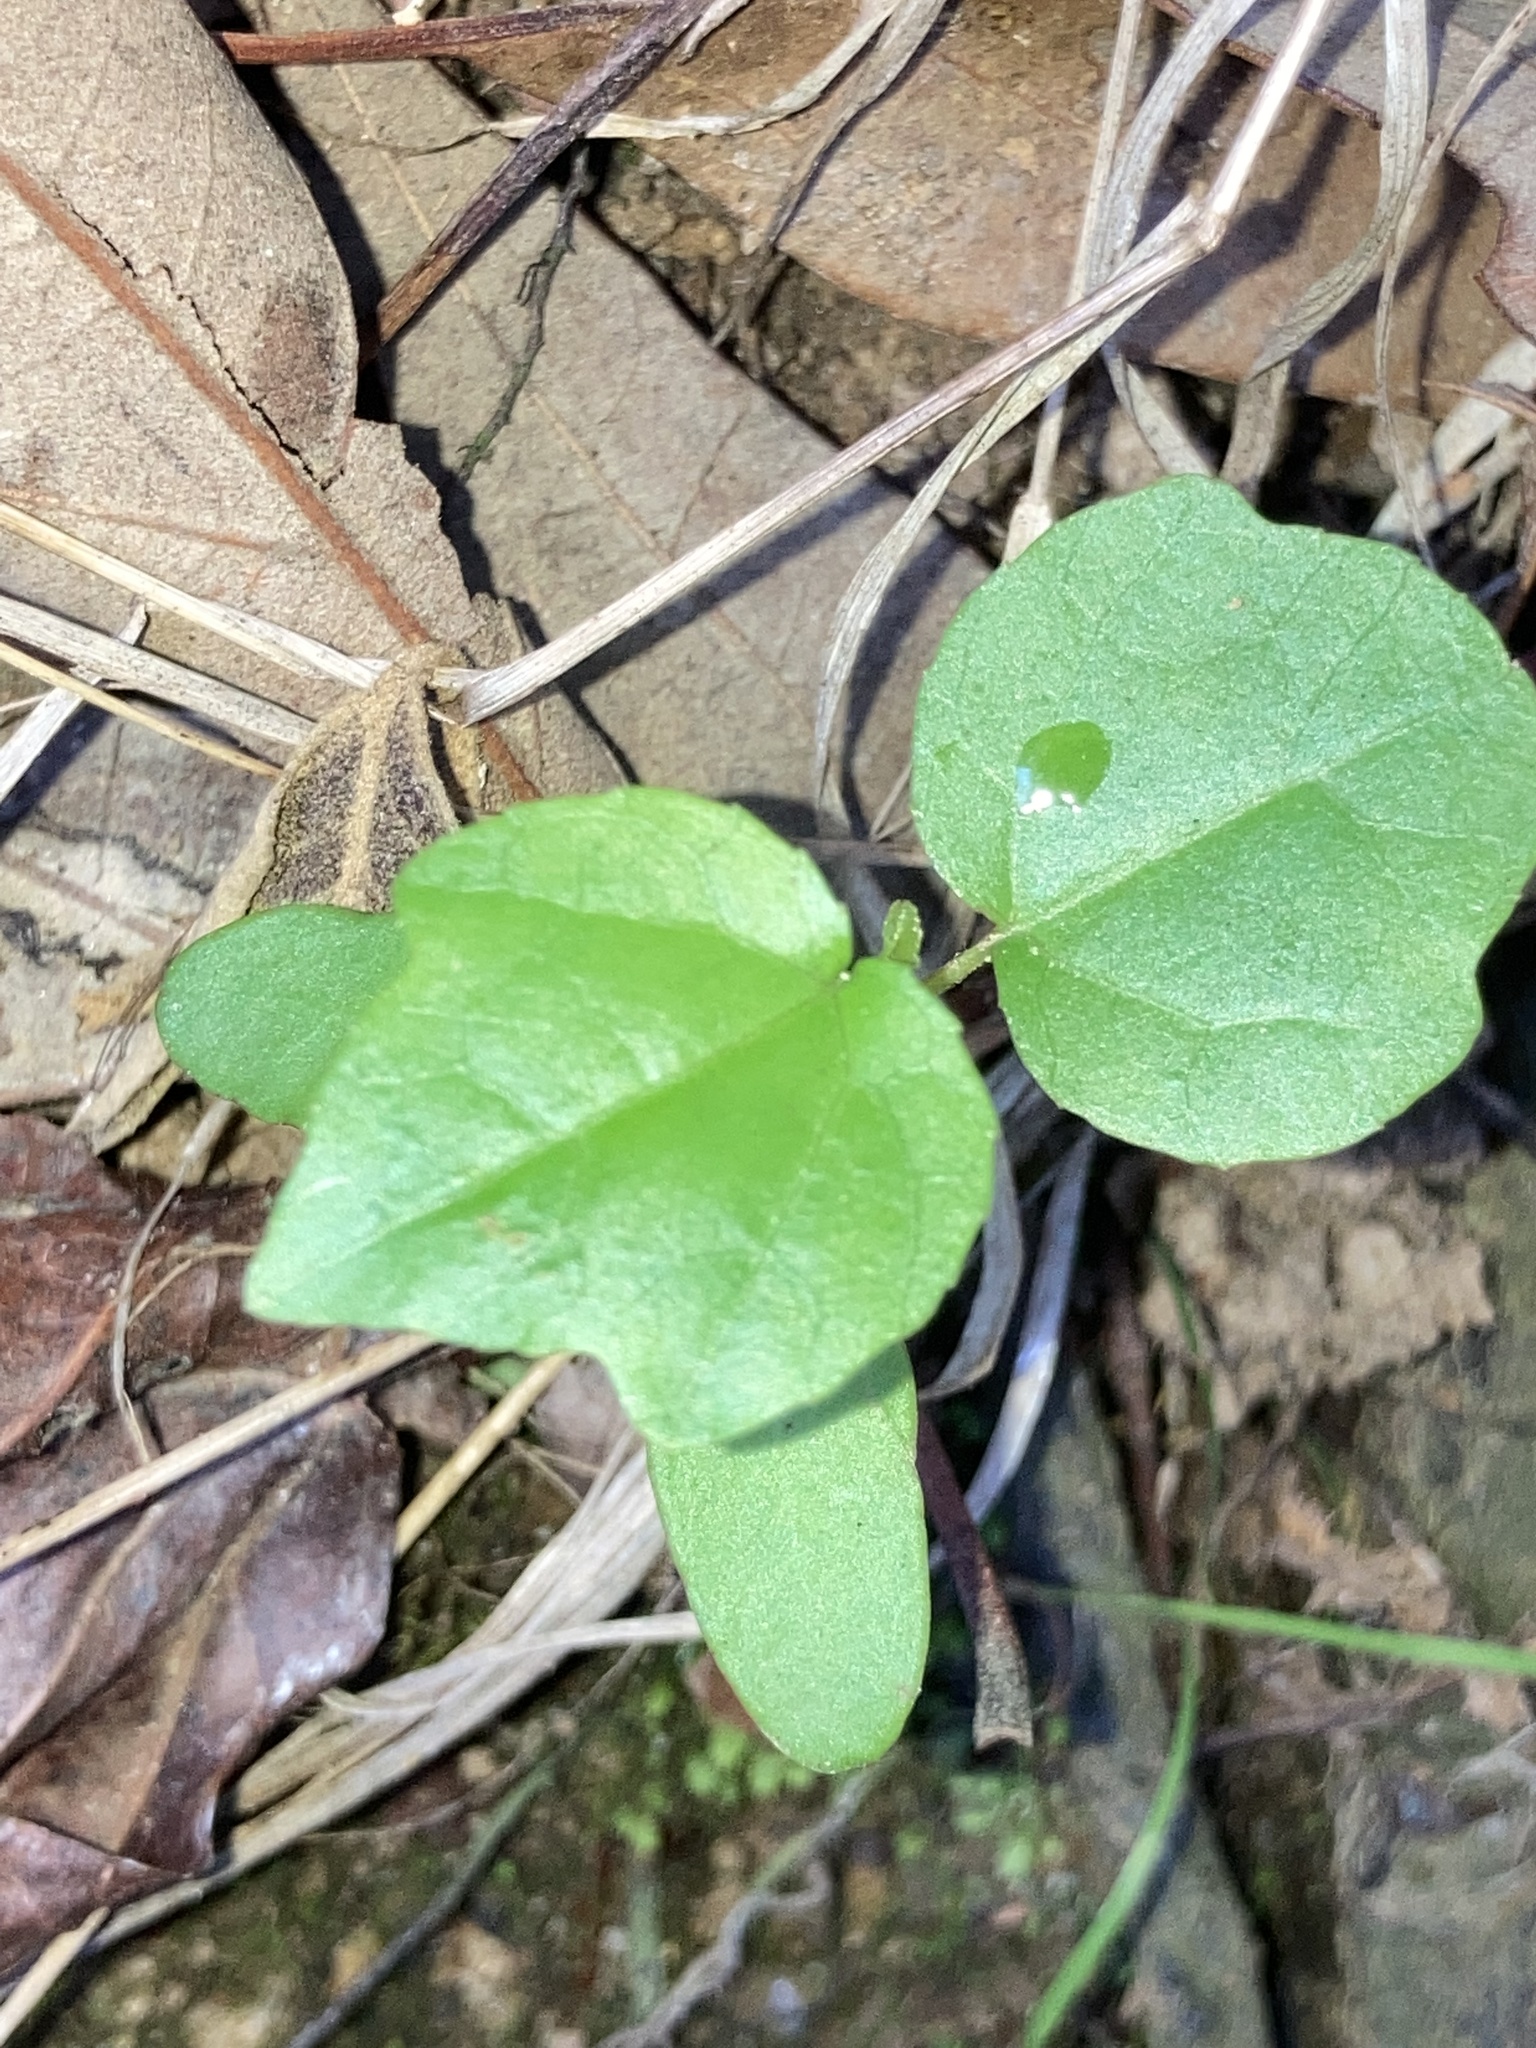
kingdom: Plantae
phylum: Tracheophyta
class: Magnoliopsida
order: Saxifragales
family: Altingiaceae
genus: Liquidambar
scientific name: Liquidambar styraciflua
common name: Sweet gum
